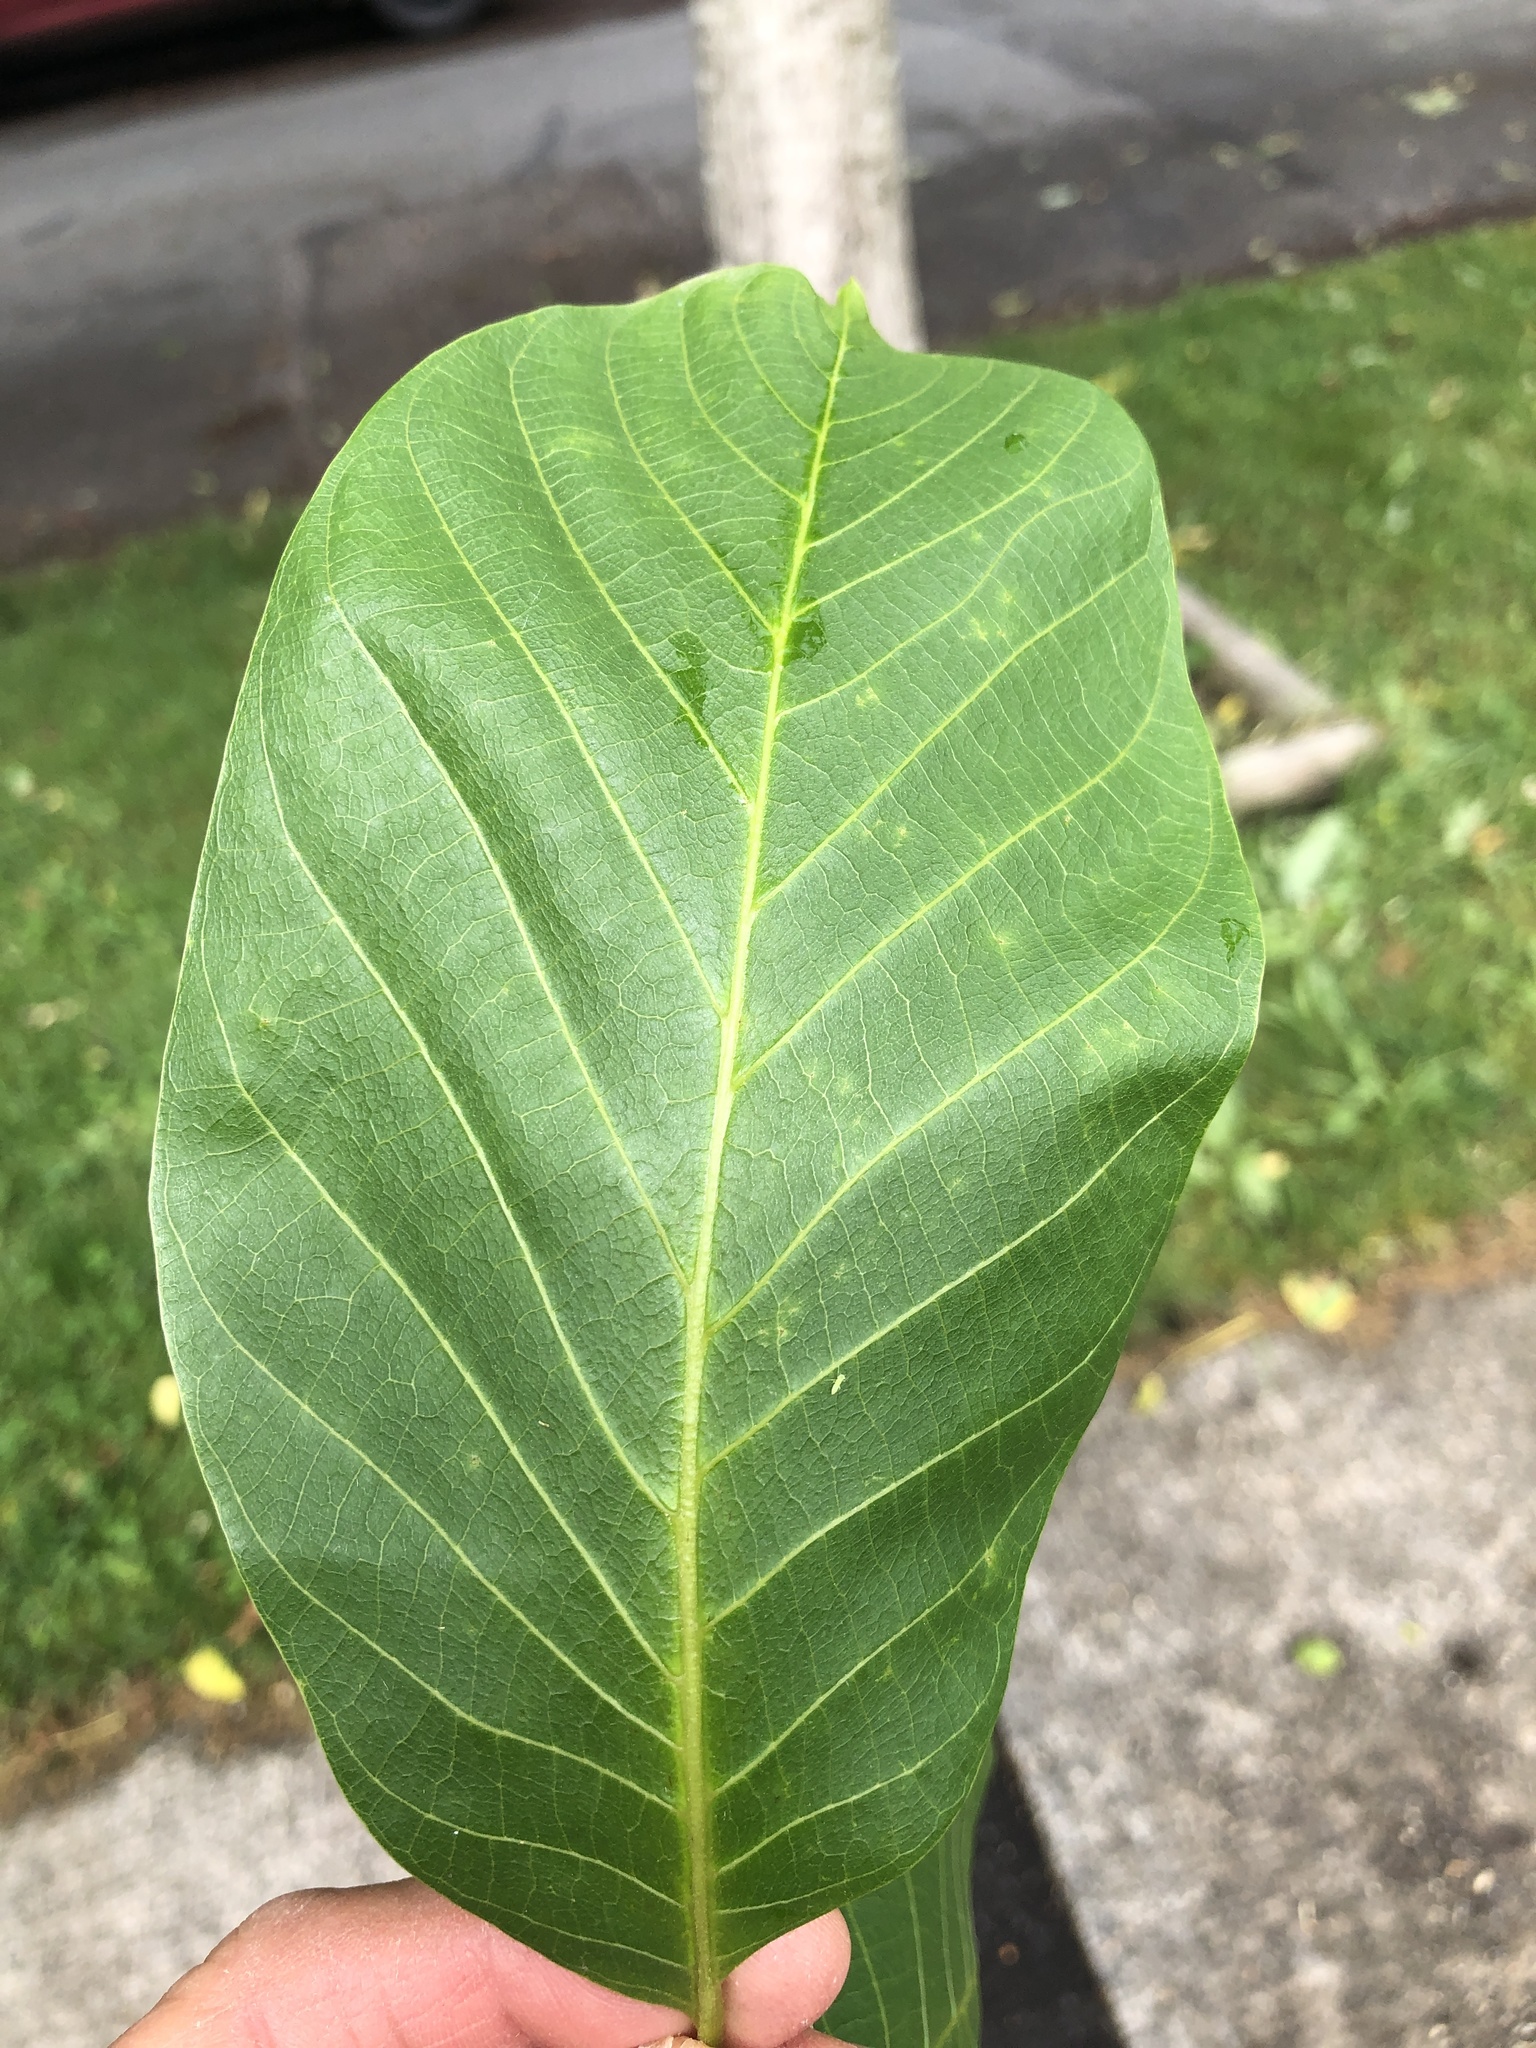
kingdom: Plantae
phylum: Tracheophyta
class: Magnoliopsida
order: Fagales
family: Juglandaceae
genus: Juglans
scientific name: Juglans regia
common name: Walnut
